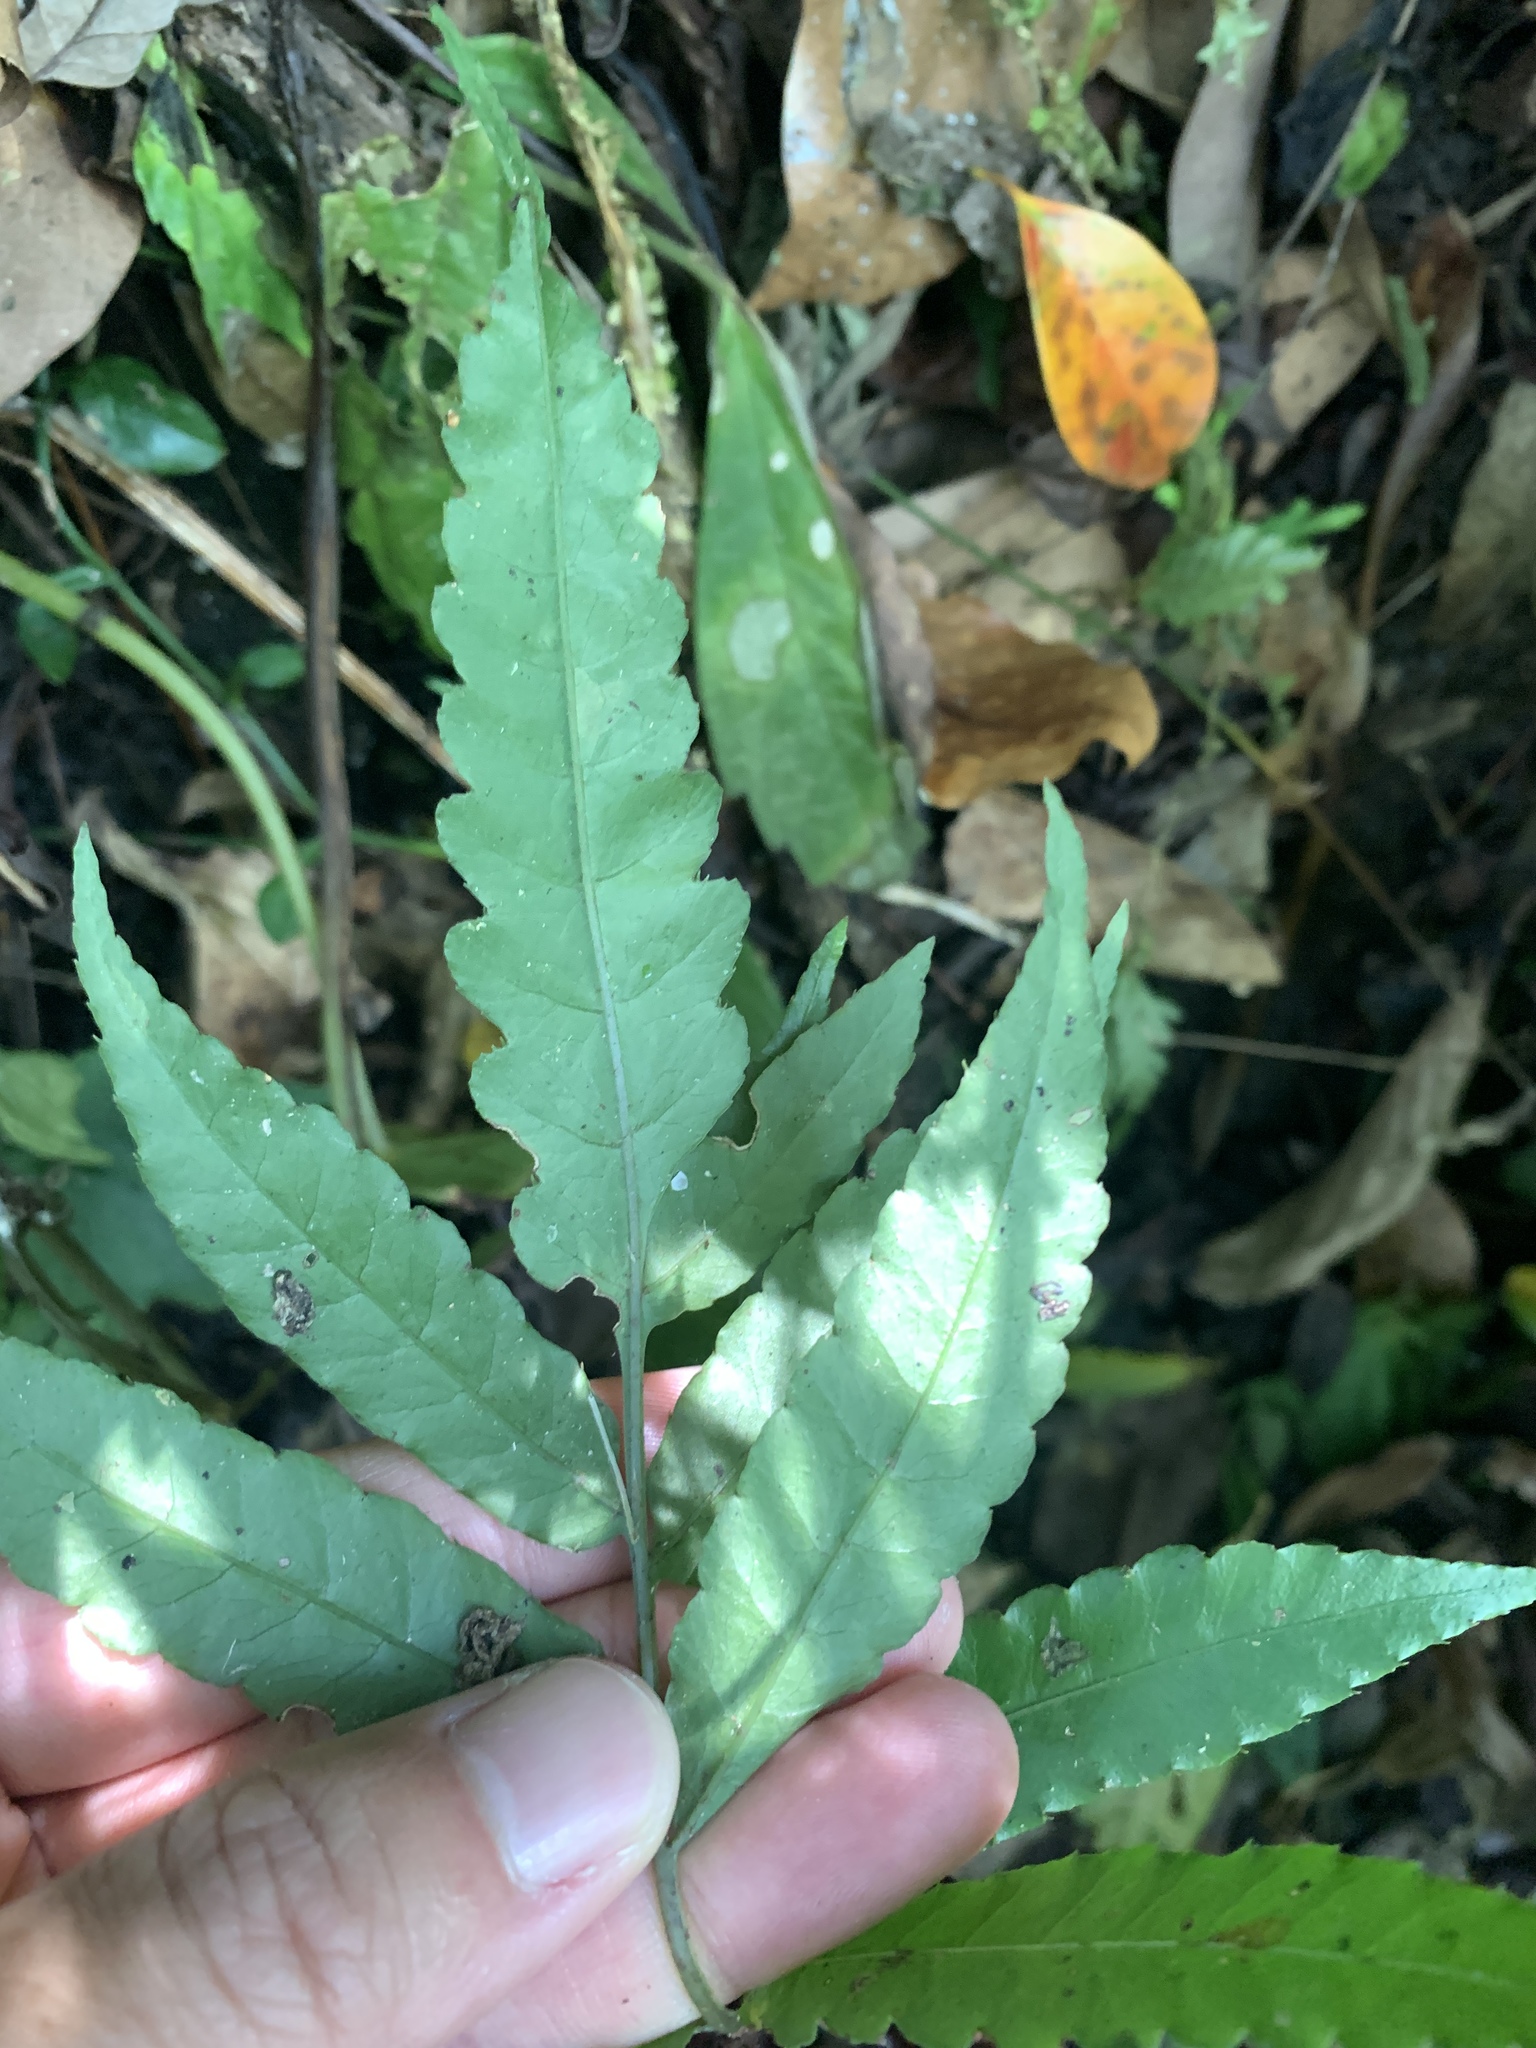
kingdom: Plantae
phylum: Tracheophyta
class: Polypodiopsida
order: Polypodiales
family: Dryopteridaceae
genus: Bolbitis
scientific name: Bolbitis subcordata
